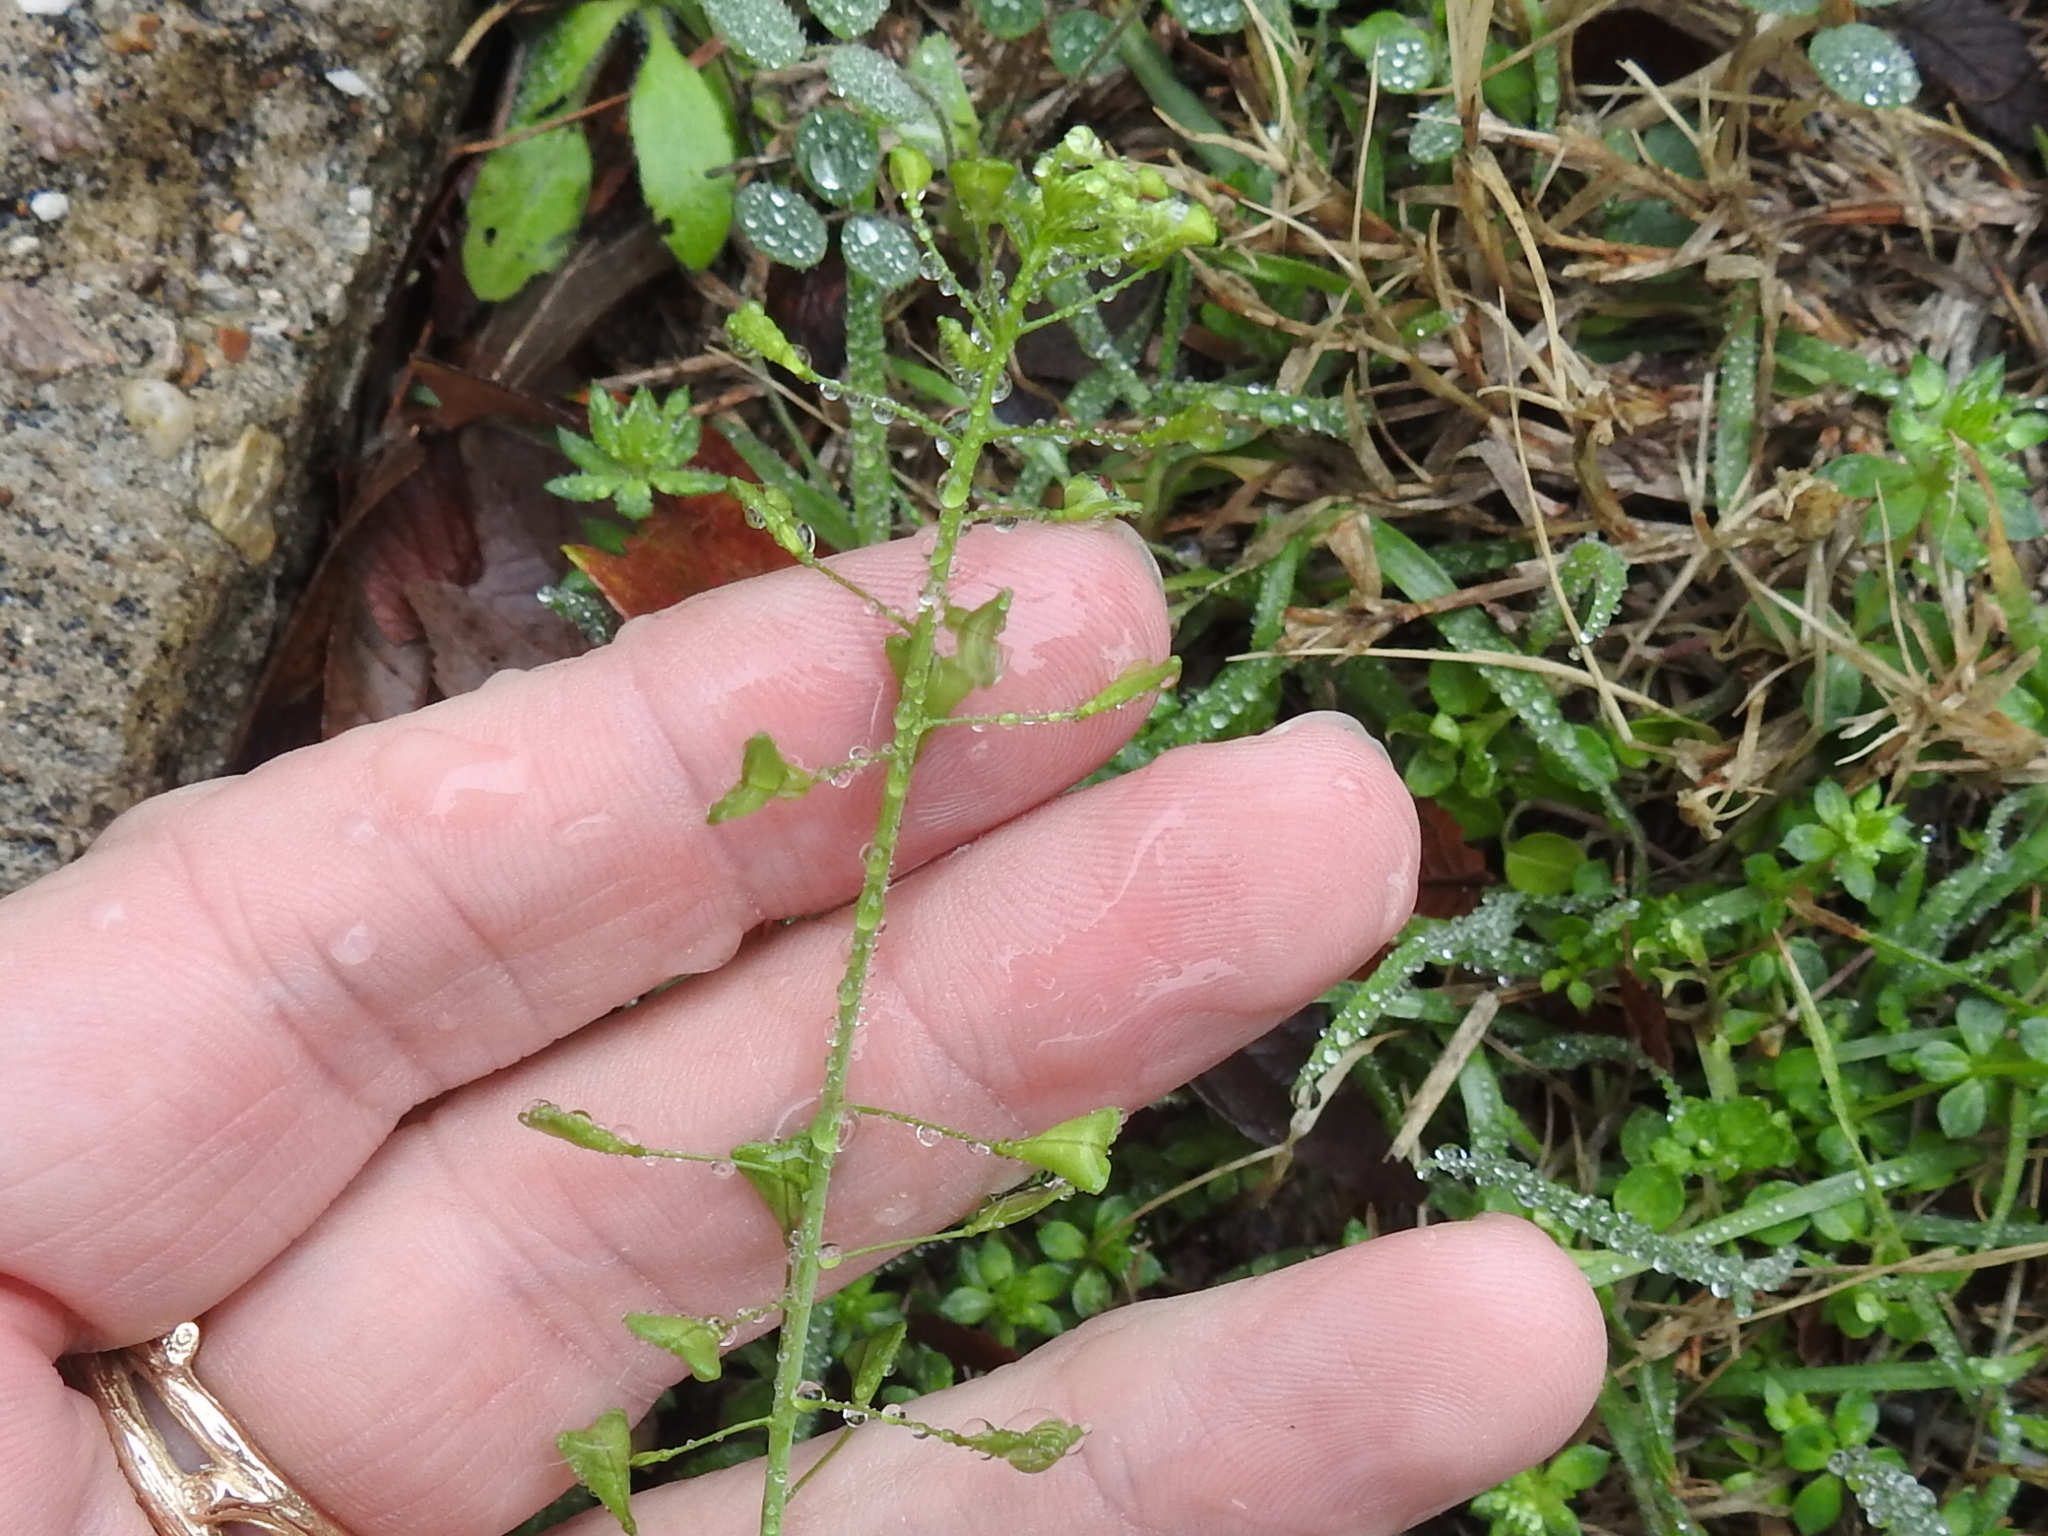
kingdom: Plantae
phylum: Tracheophyta
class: Magnoliopsida
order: Brassicales
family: Brassicaceae
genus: Capsella
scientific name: Capsella bursa-pastoris
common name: Shepherd's purse
